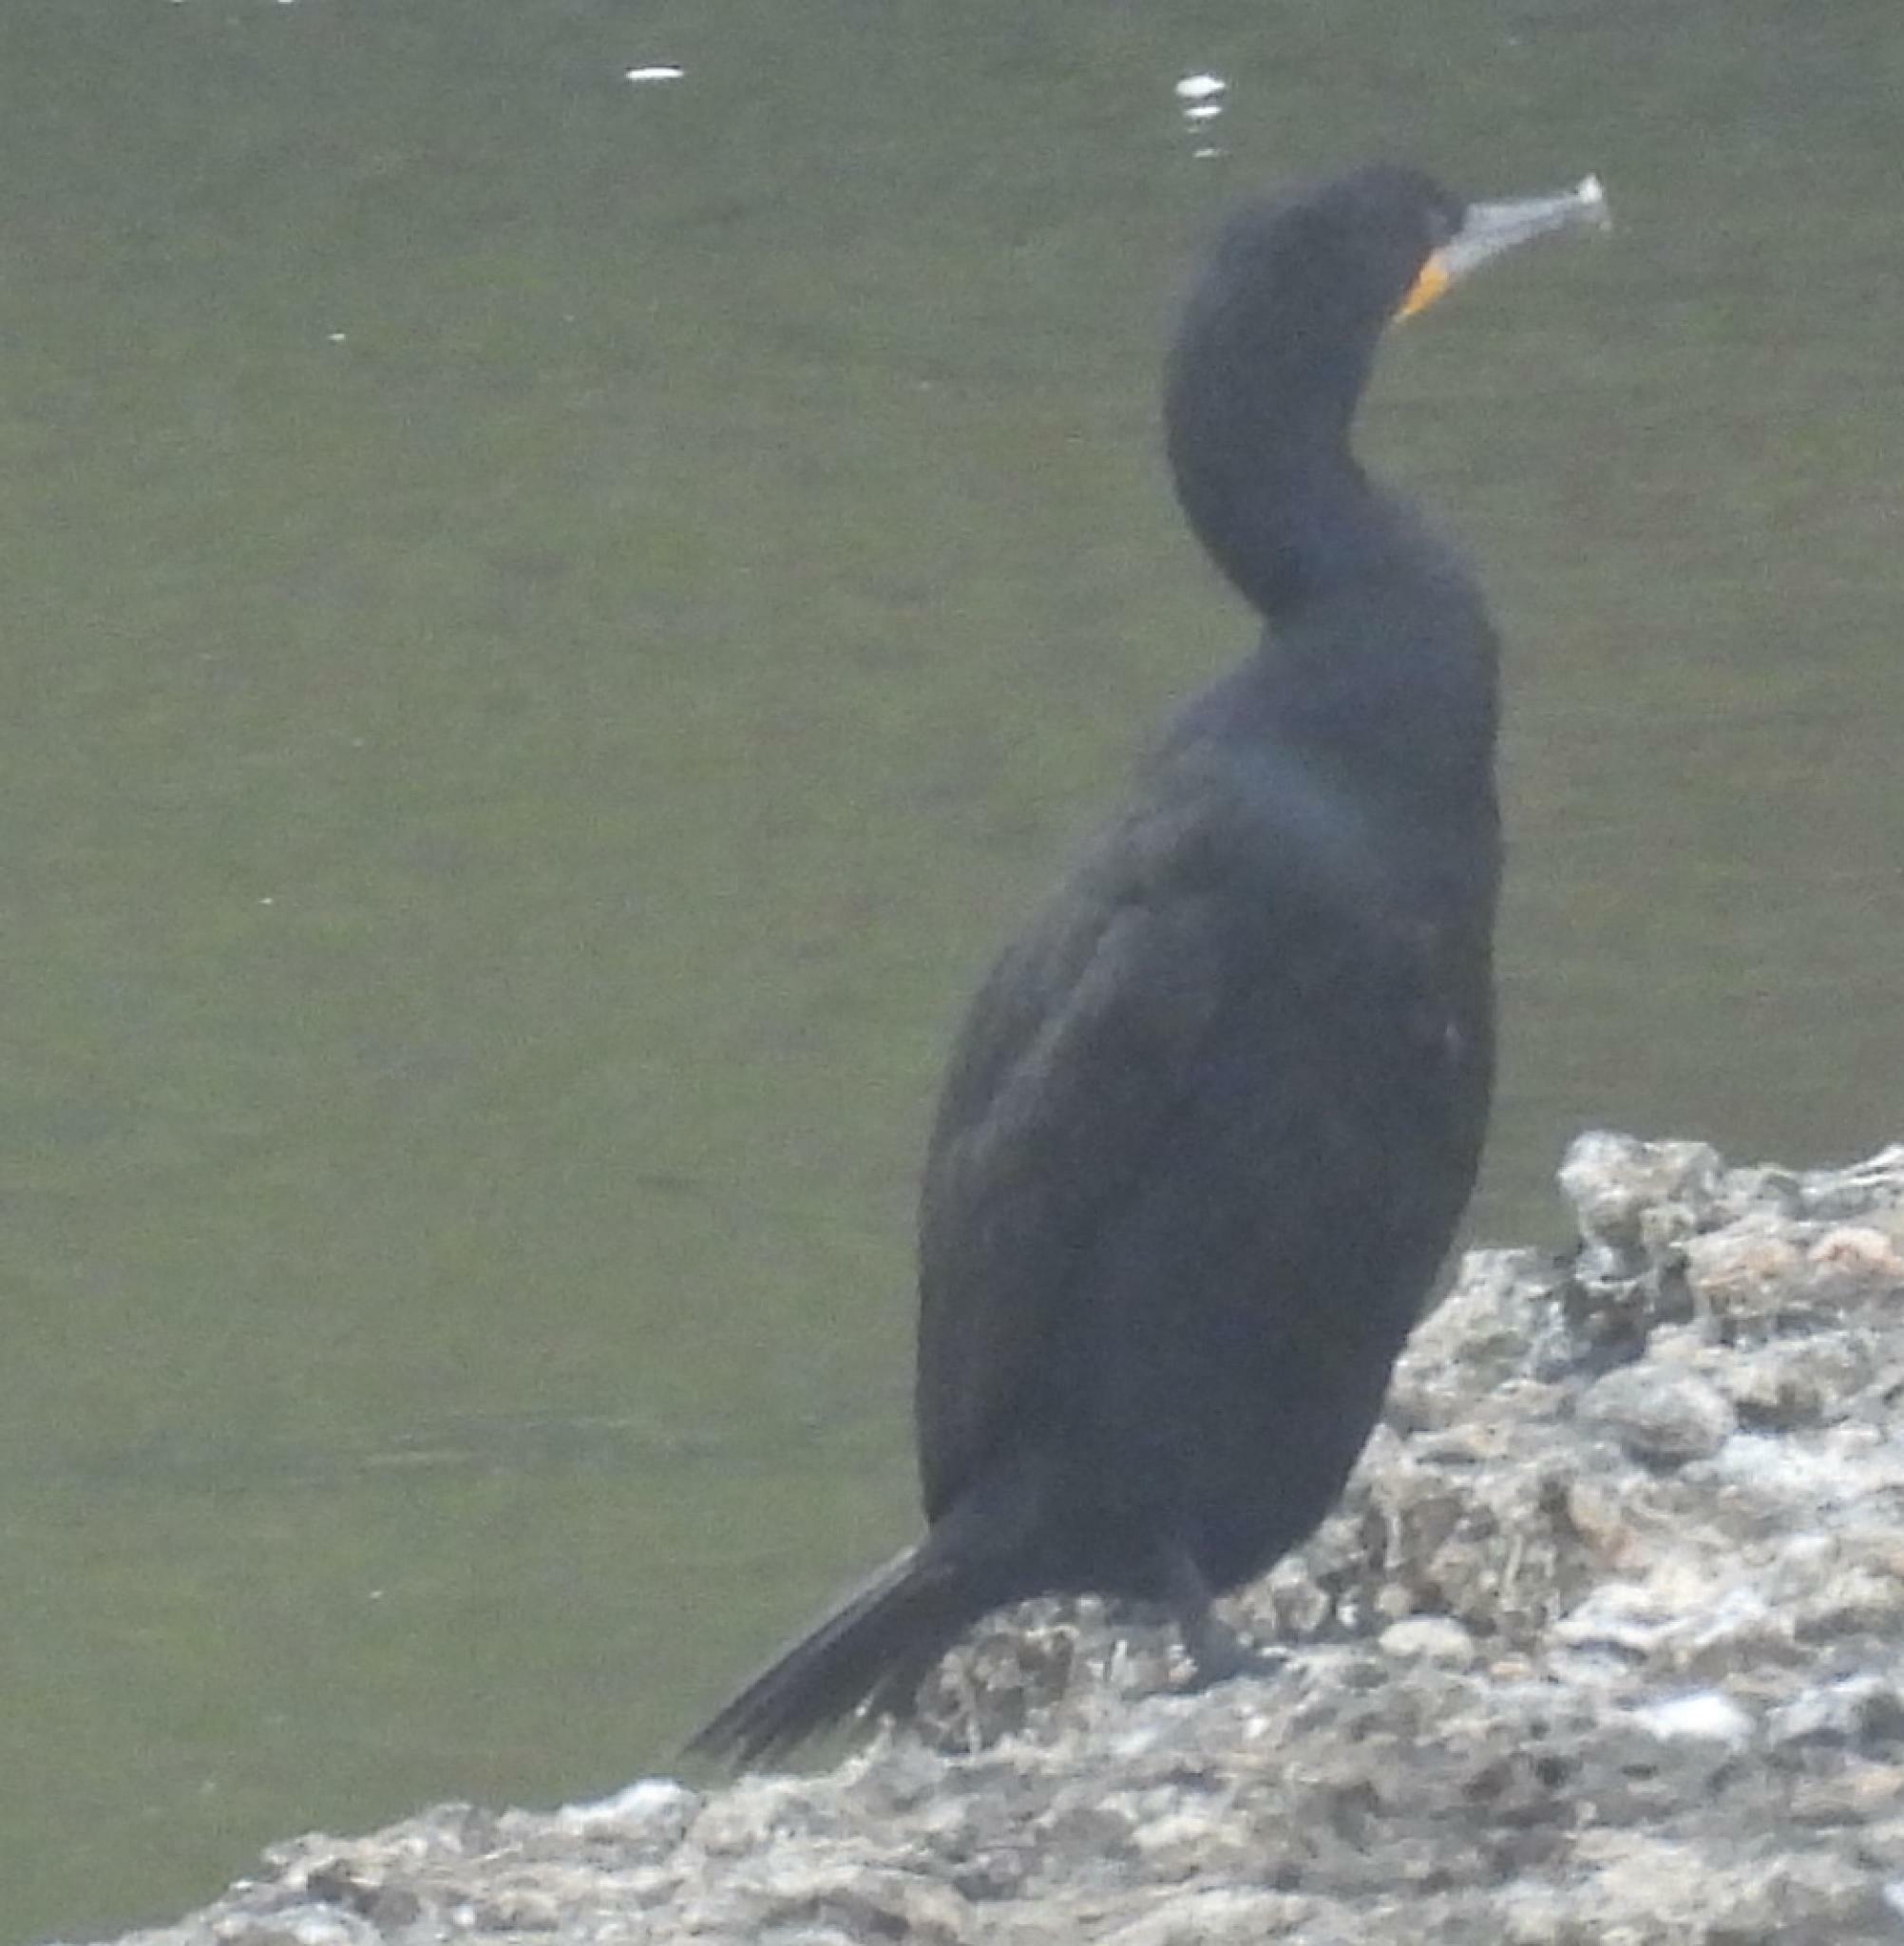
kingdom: Animalia
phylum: Chordata
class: Aves
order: Suliformes
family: Phalacrocoracidae
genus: Phalacrocorax
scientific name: Phalacrocorax capensis
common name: Cape cormorant
